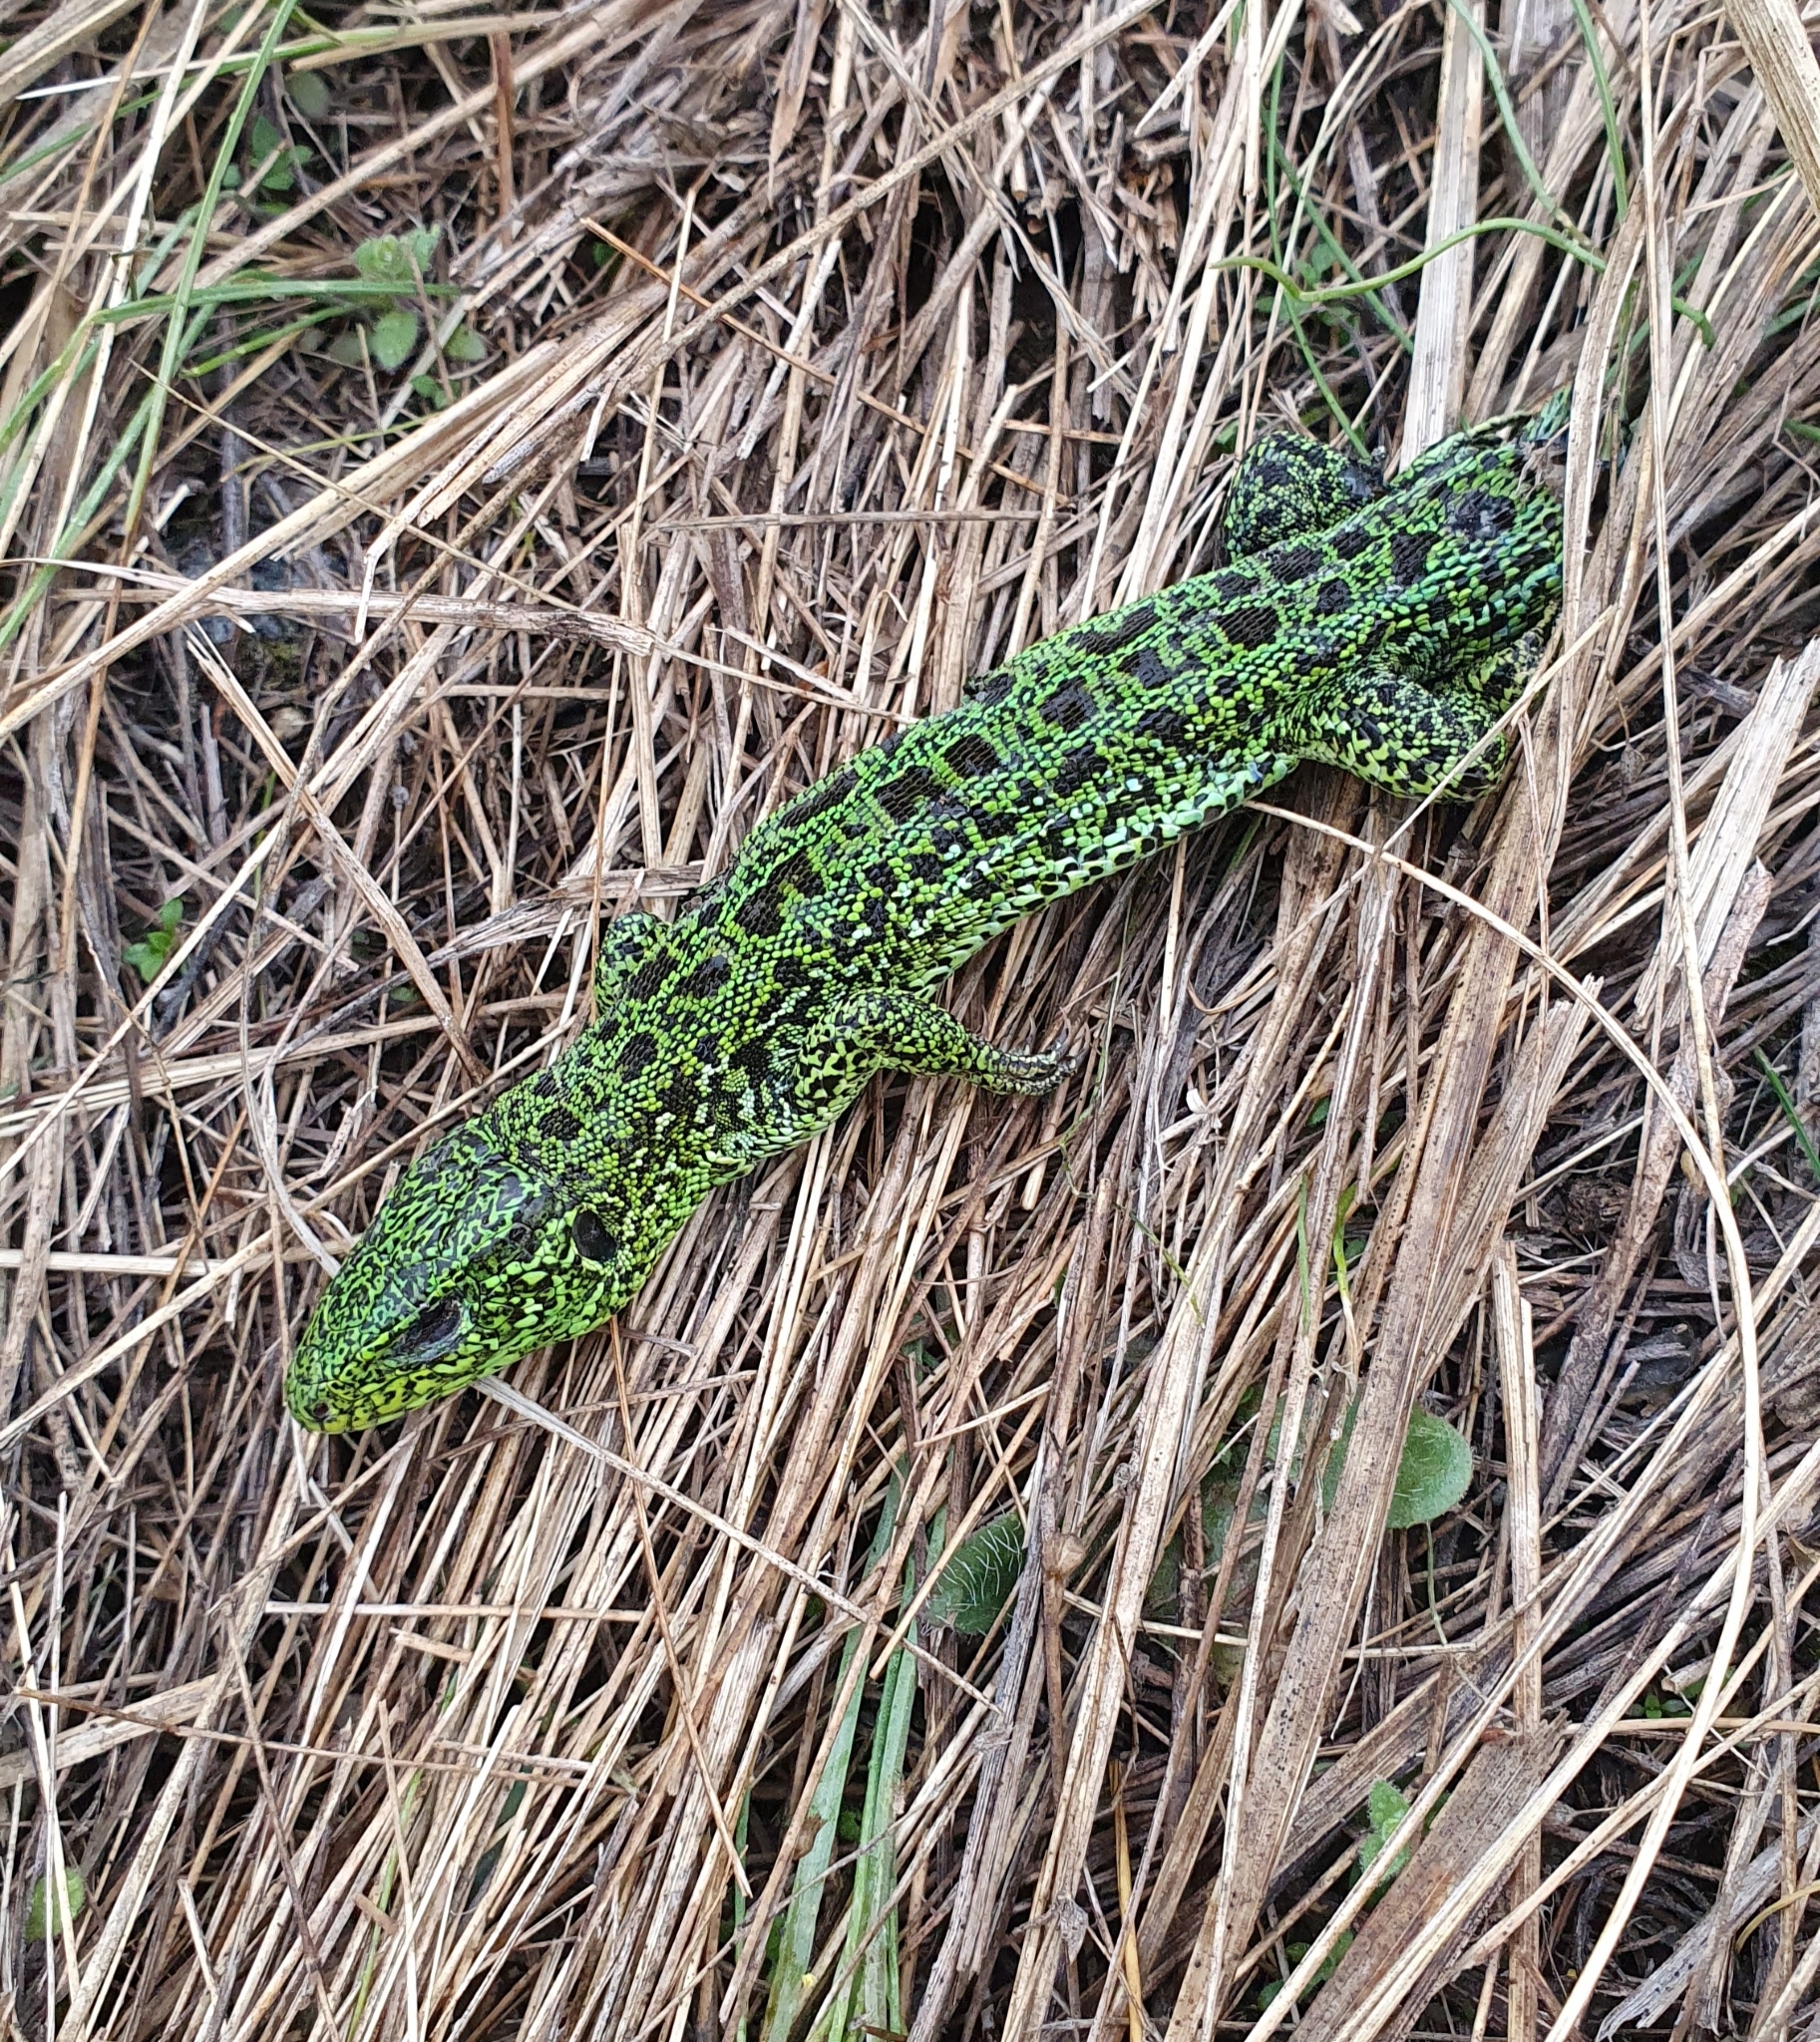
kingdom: Animalia
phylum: Chordata
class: Squamata
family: Lacertidae
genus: Lacerta
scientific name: Lacerta agilis
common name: Sand lizard
